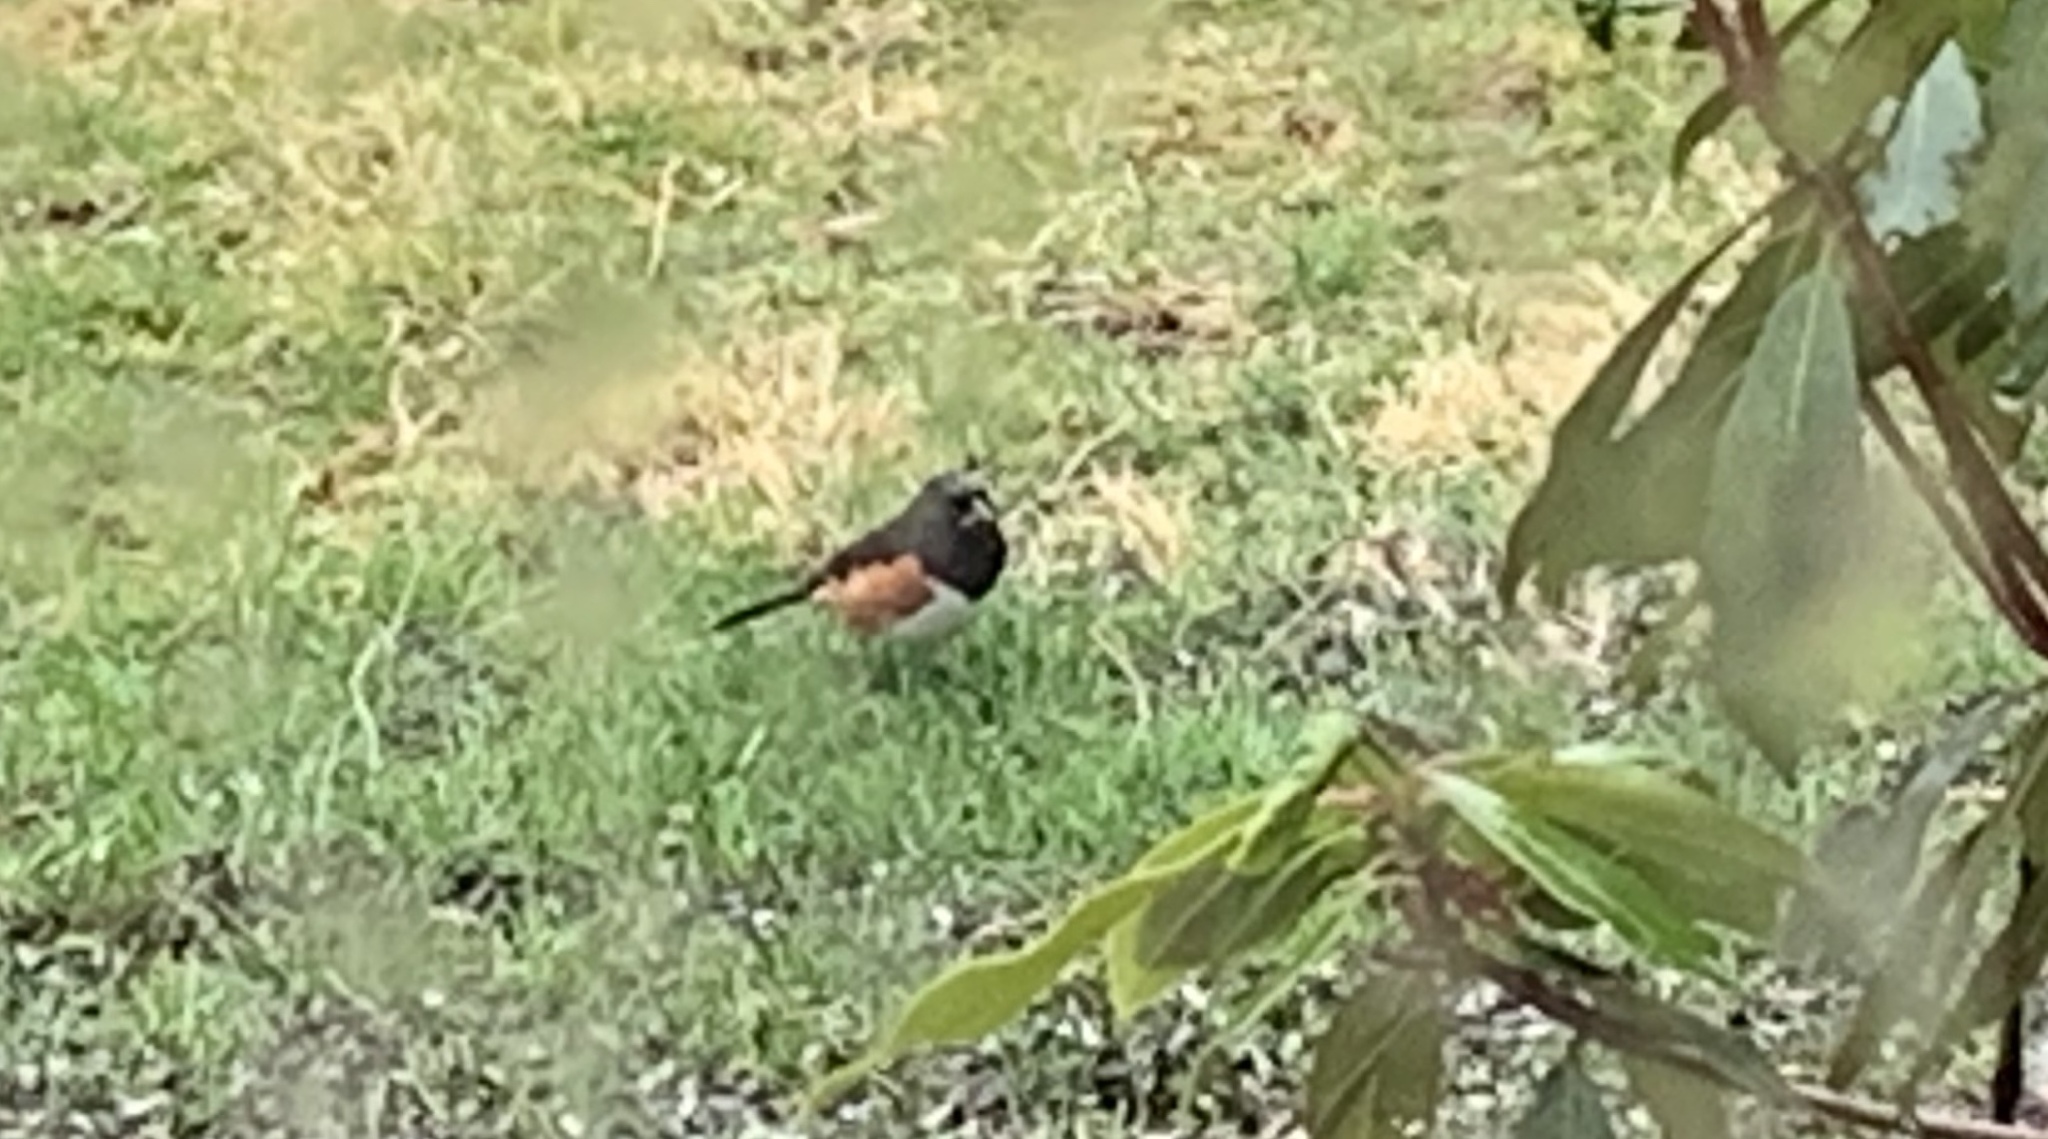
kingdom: Animalia
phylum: Chordata
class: Aves
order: Passeriformes
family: Passerellidae
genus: Pipilo
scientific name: Pipilo erythrophthalmus
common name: Eastern towhee
